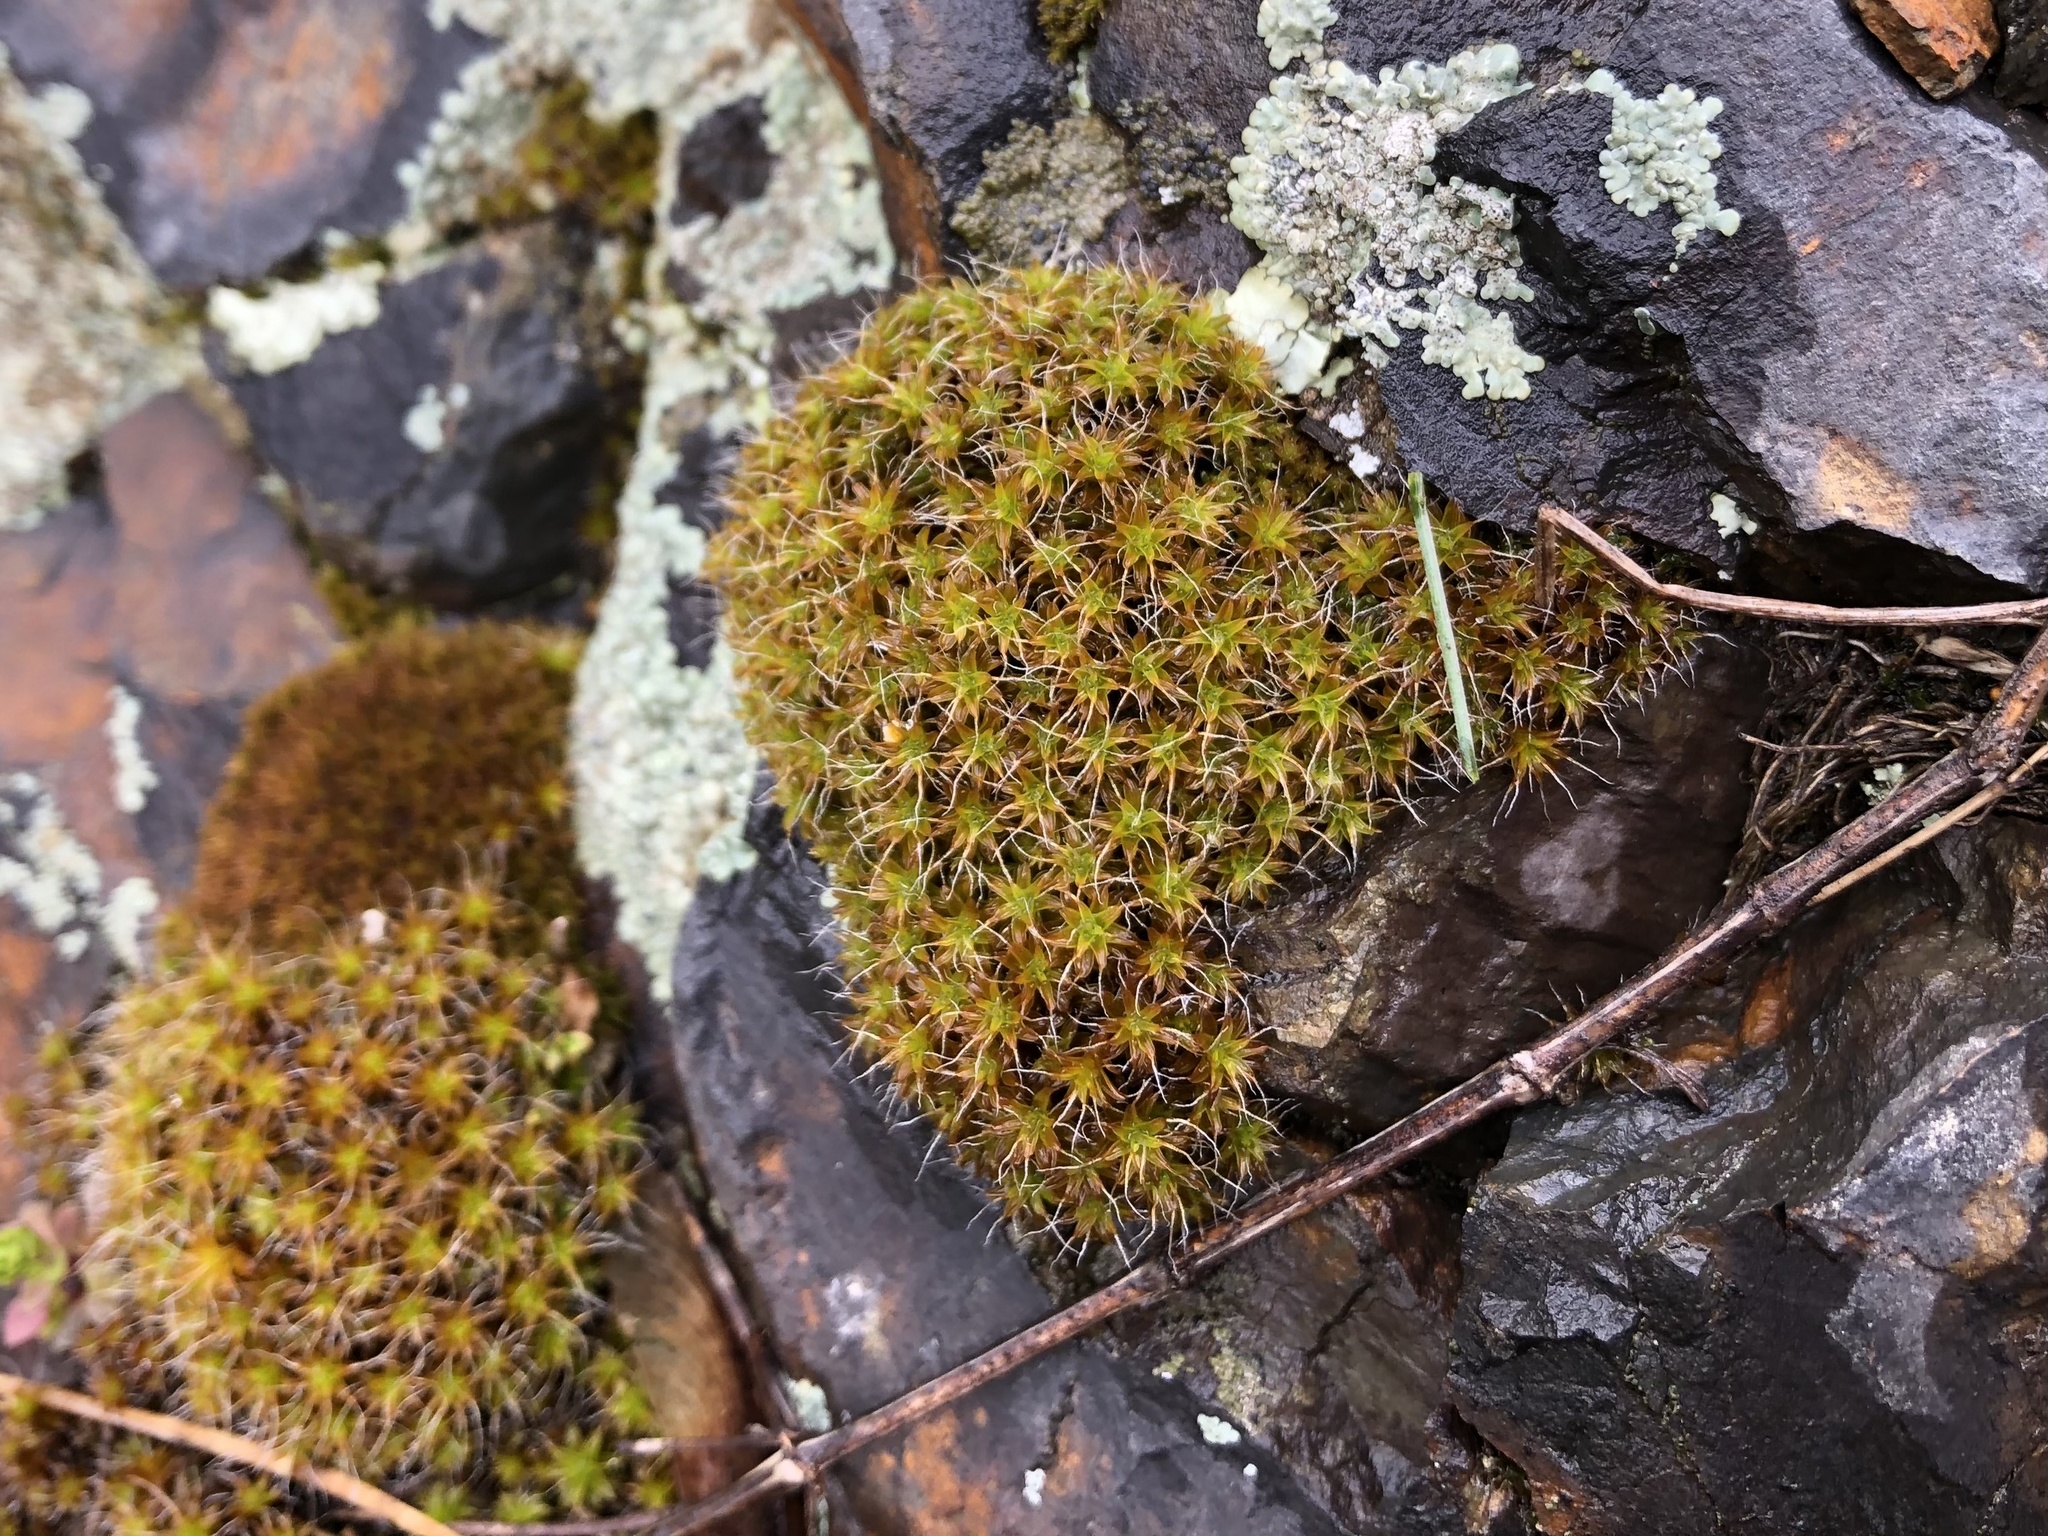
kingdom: Plantae
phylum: Bryophyta
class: Bryopsida
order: Pottiales
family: Pottiaceae
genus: Syntrichia
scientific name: Syntrichia ruralis
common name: Sidewalk screw moss
